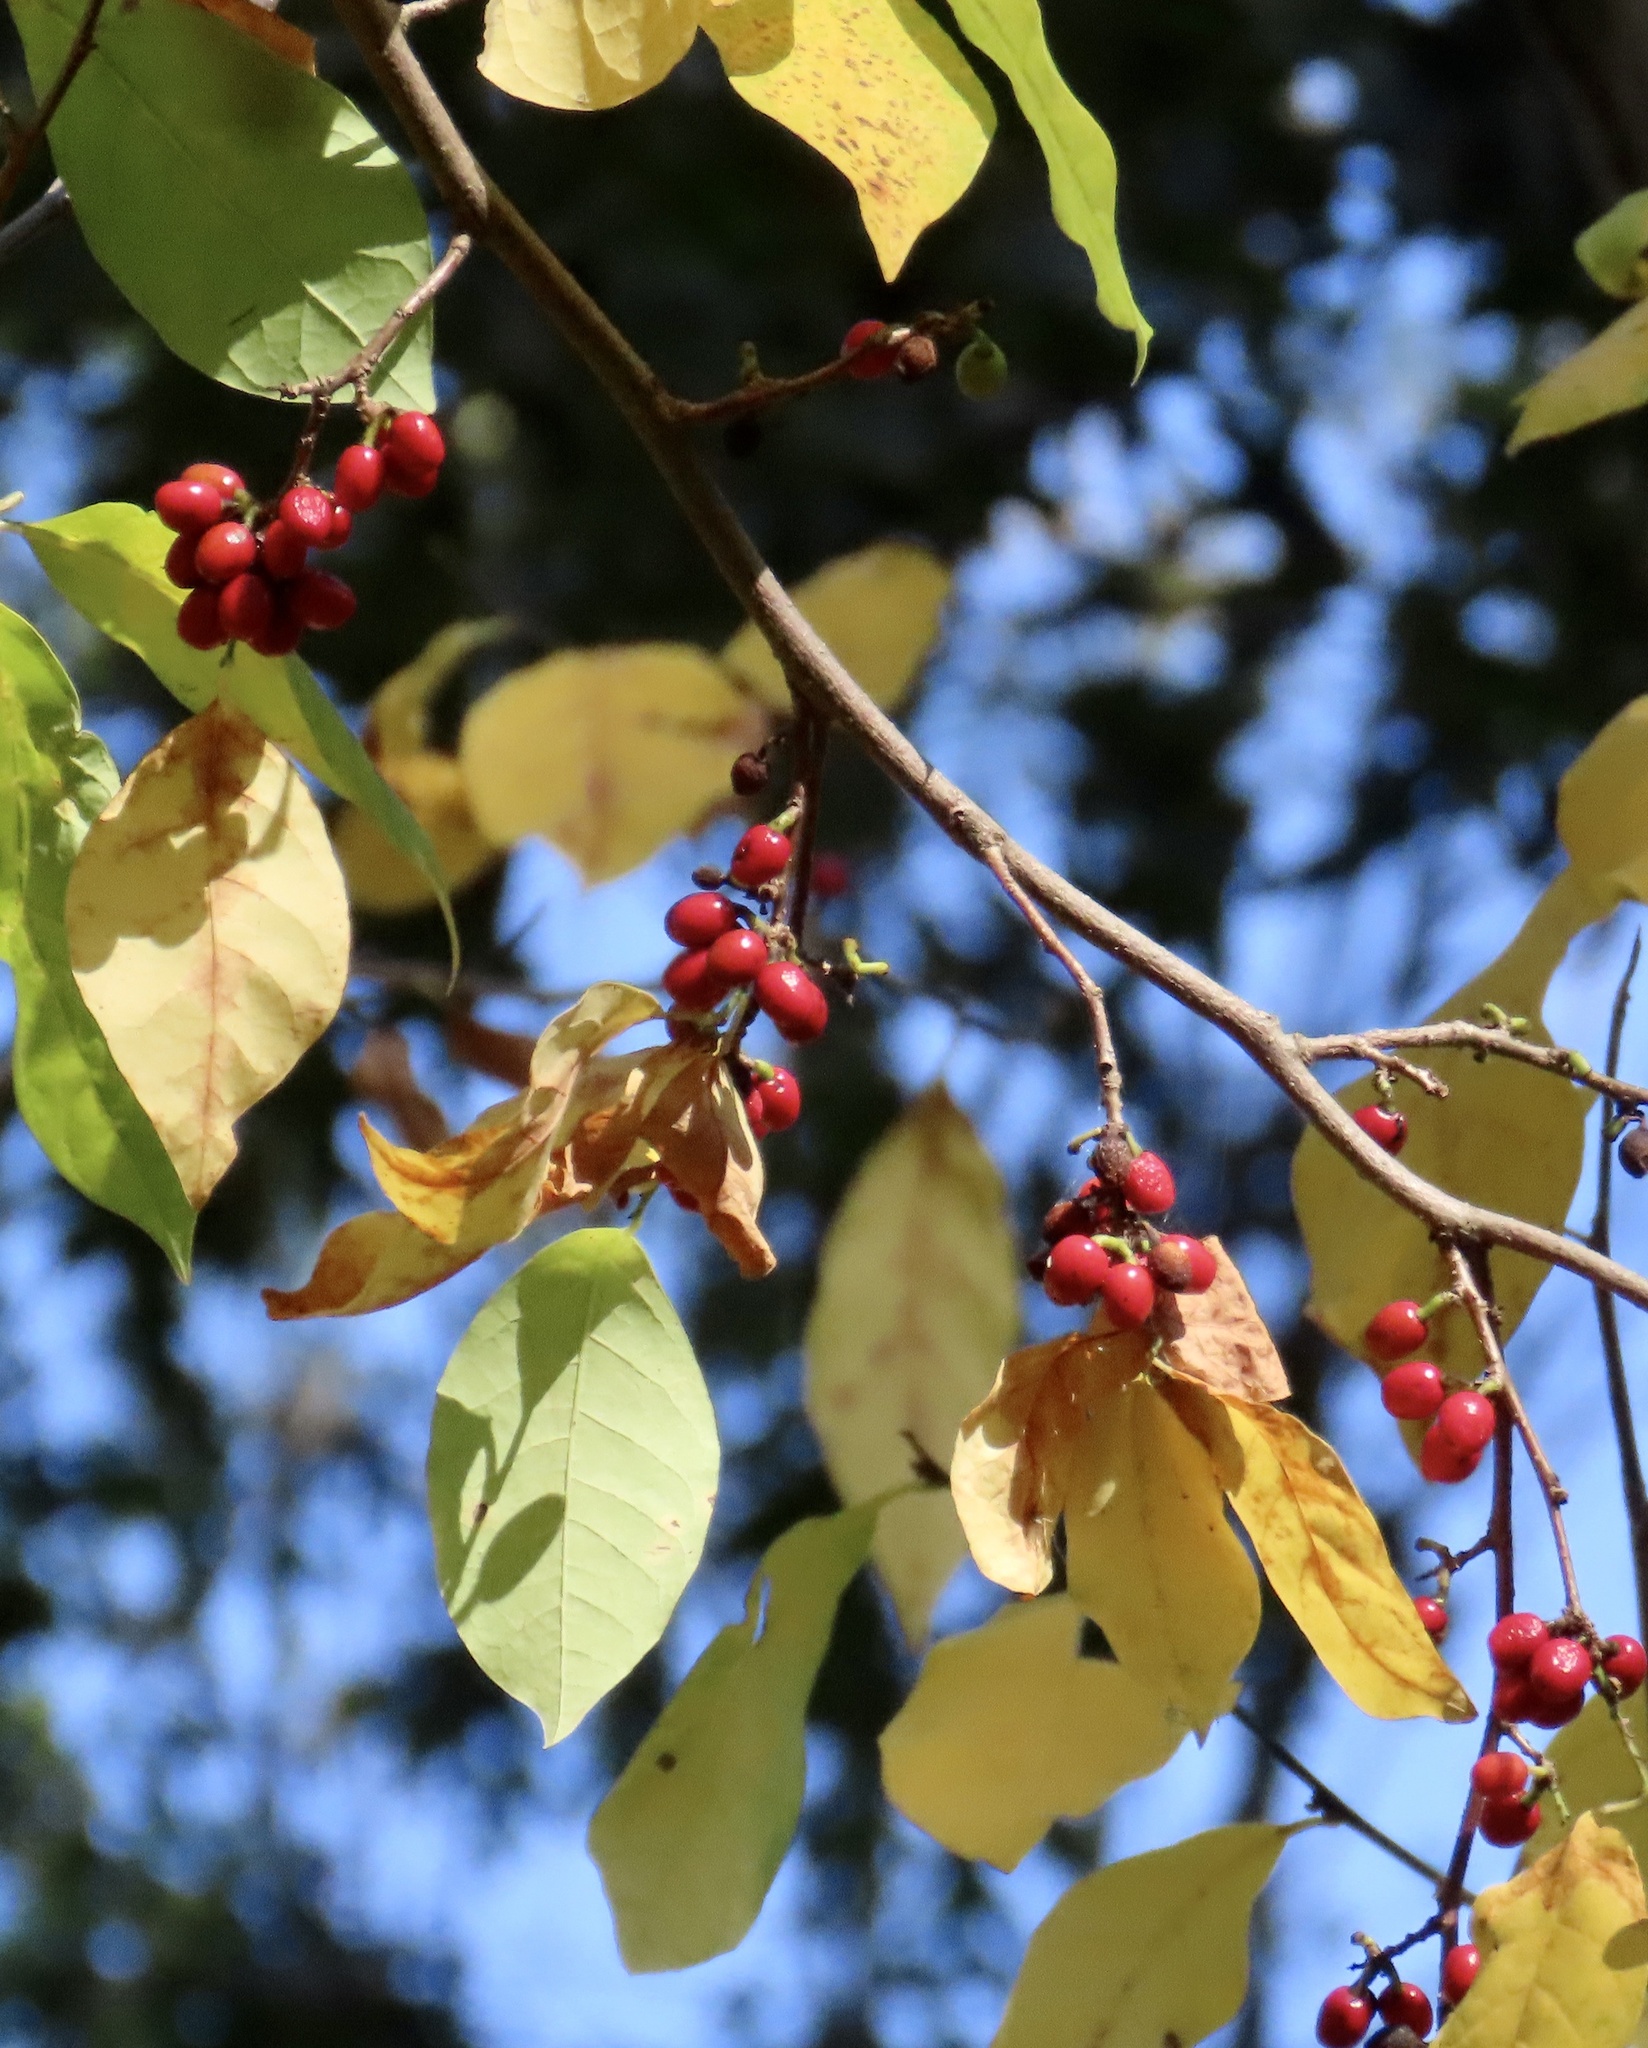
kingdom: Plantae
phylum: Tracheophyta
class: Magnoliopsida
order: Laurales
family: Lauraceae
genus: Lindera
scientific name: Lindera benzoin
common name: Spicebush
